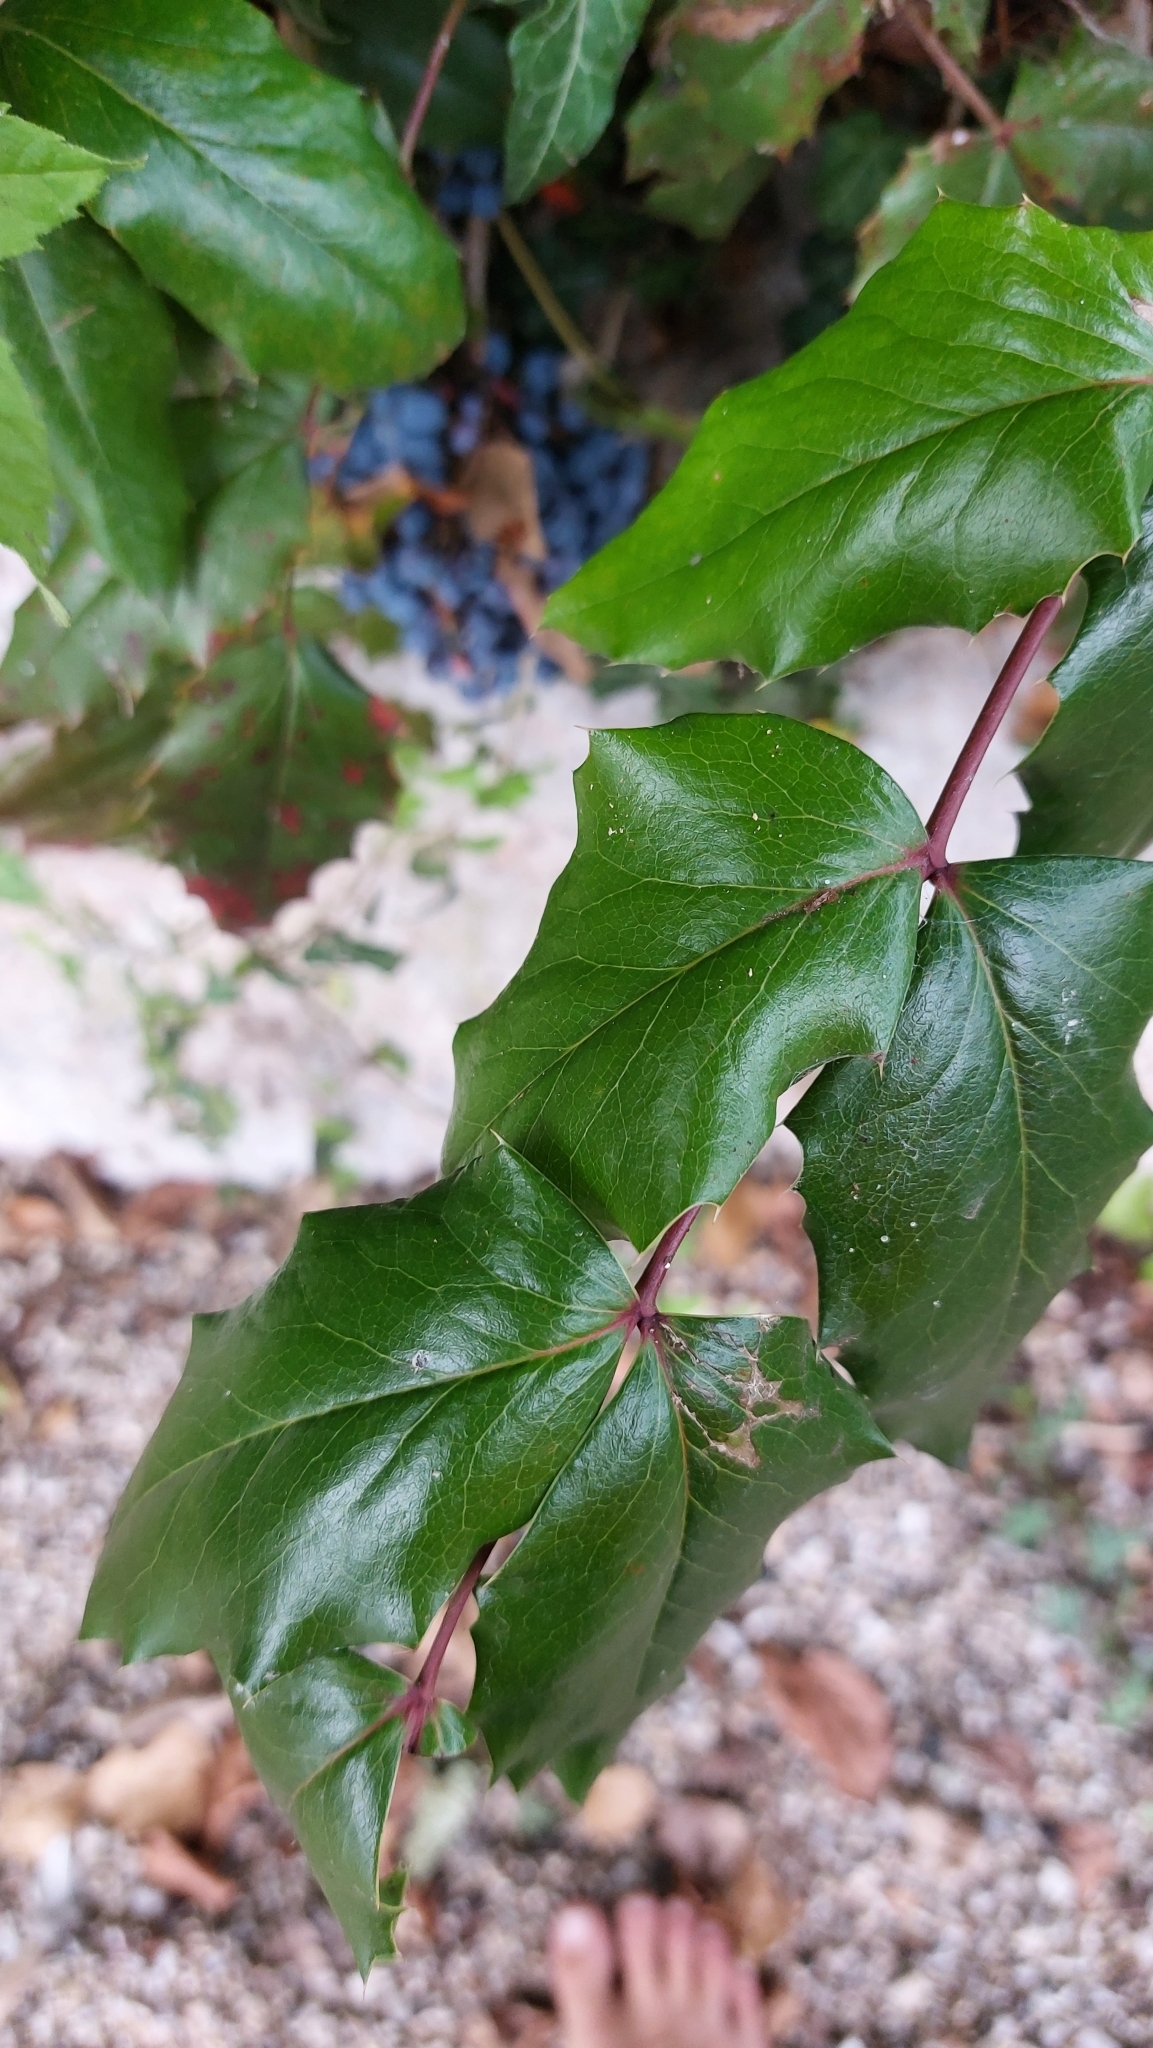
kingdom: Plantae
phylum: Tracheophyta
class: Magnoliopsida
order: Ranunculales
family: Berberidaceae
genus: Mahonia
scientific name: Mahonia aquifolium
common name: Oregon-grape
